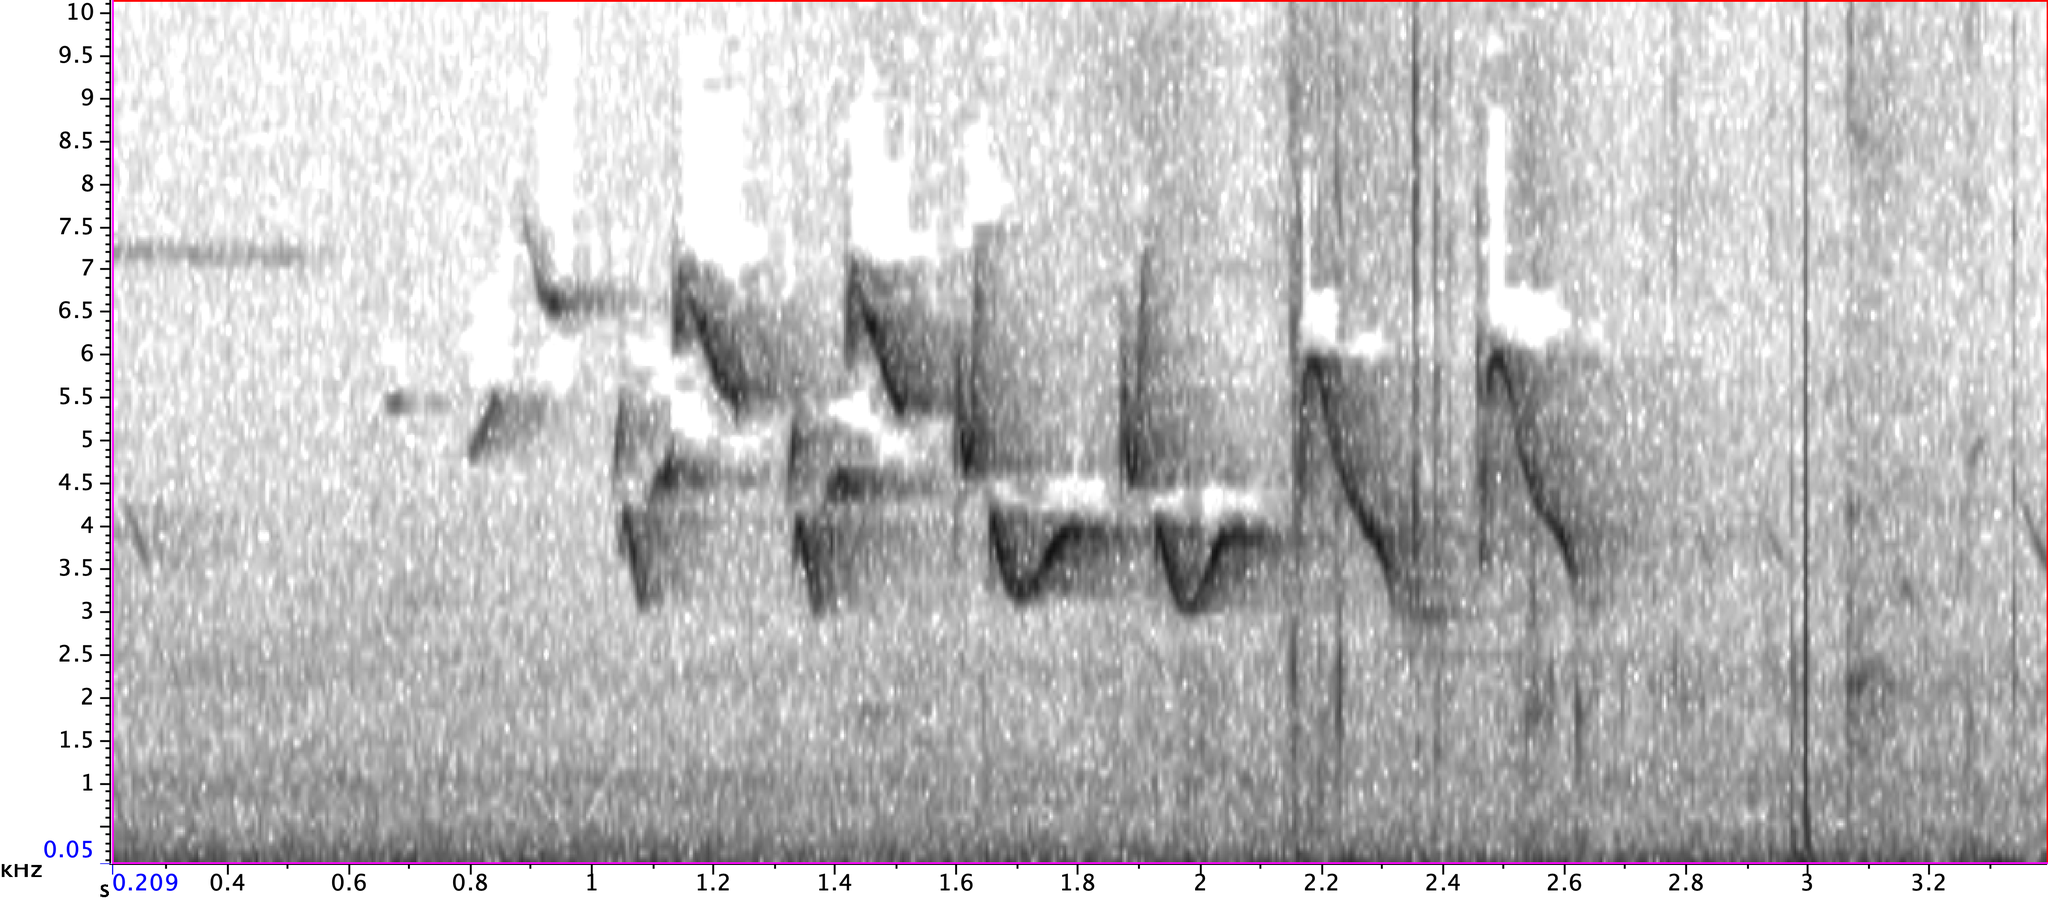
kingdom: Animalia
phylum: Chordata
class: Aves
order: Passeriformes
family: Cardinalidae
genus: Passerina
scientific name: Passerina cyanea
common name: Indigo bunting
